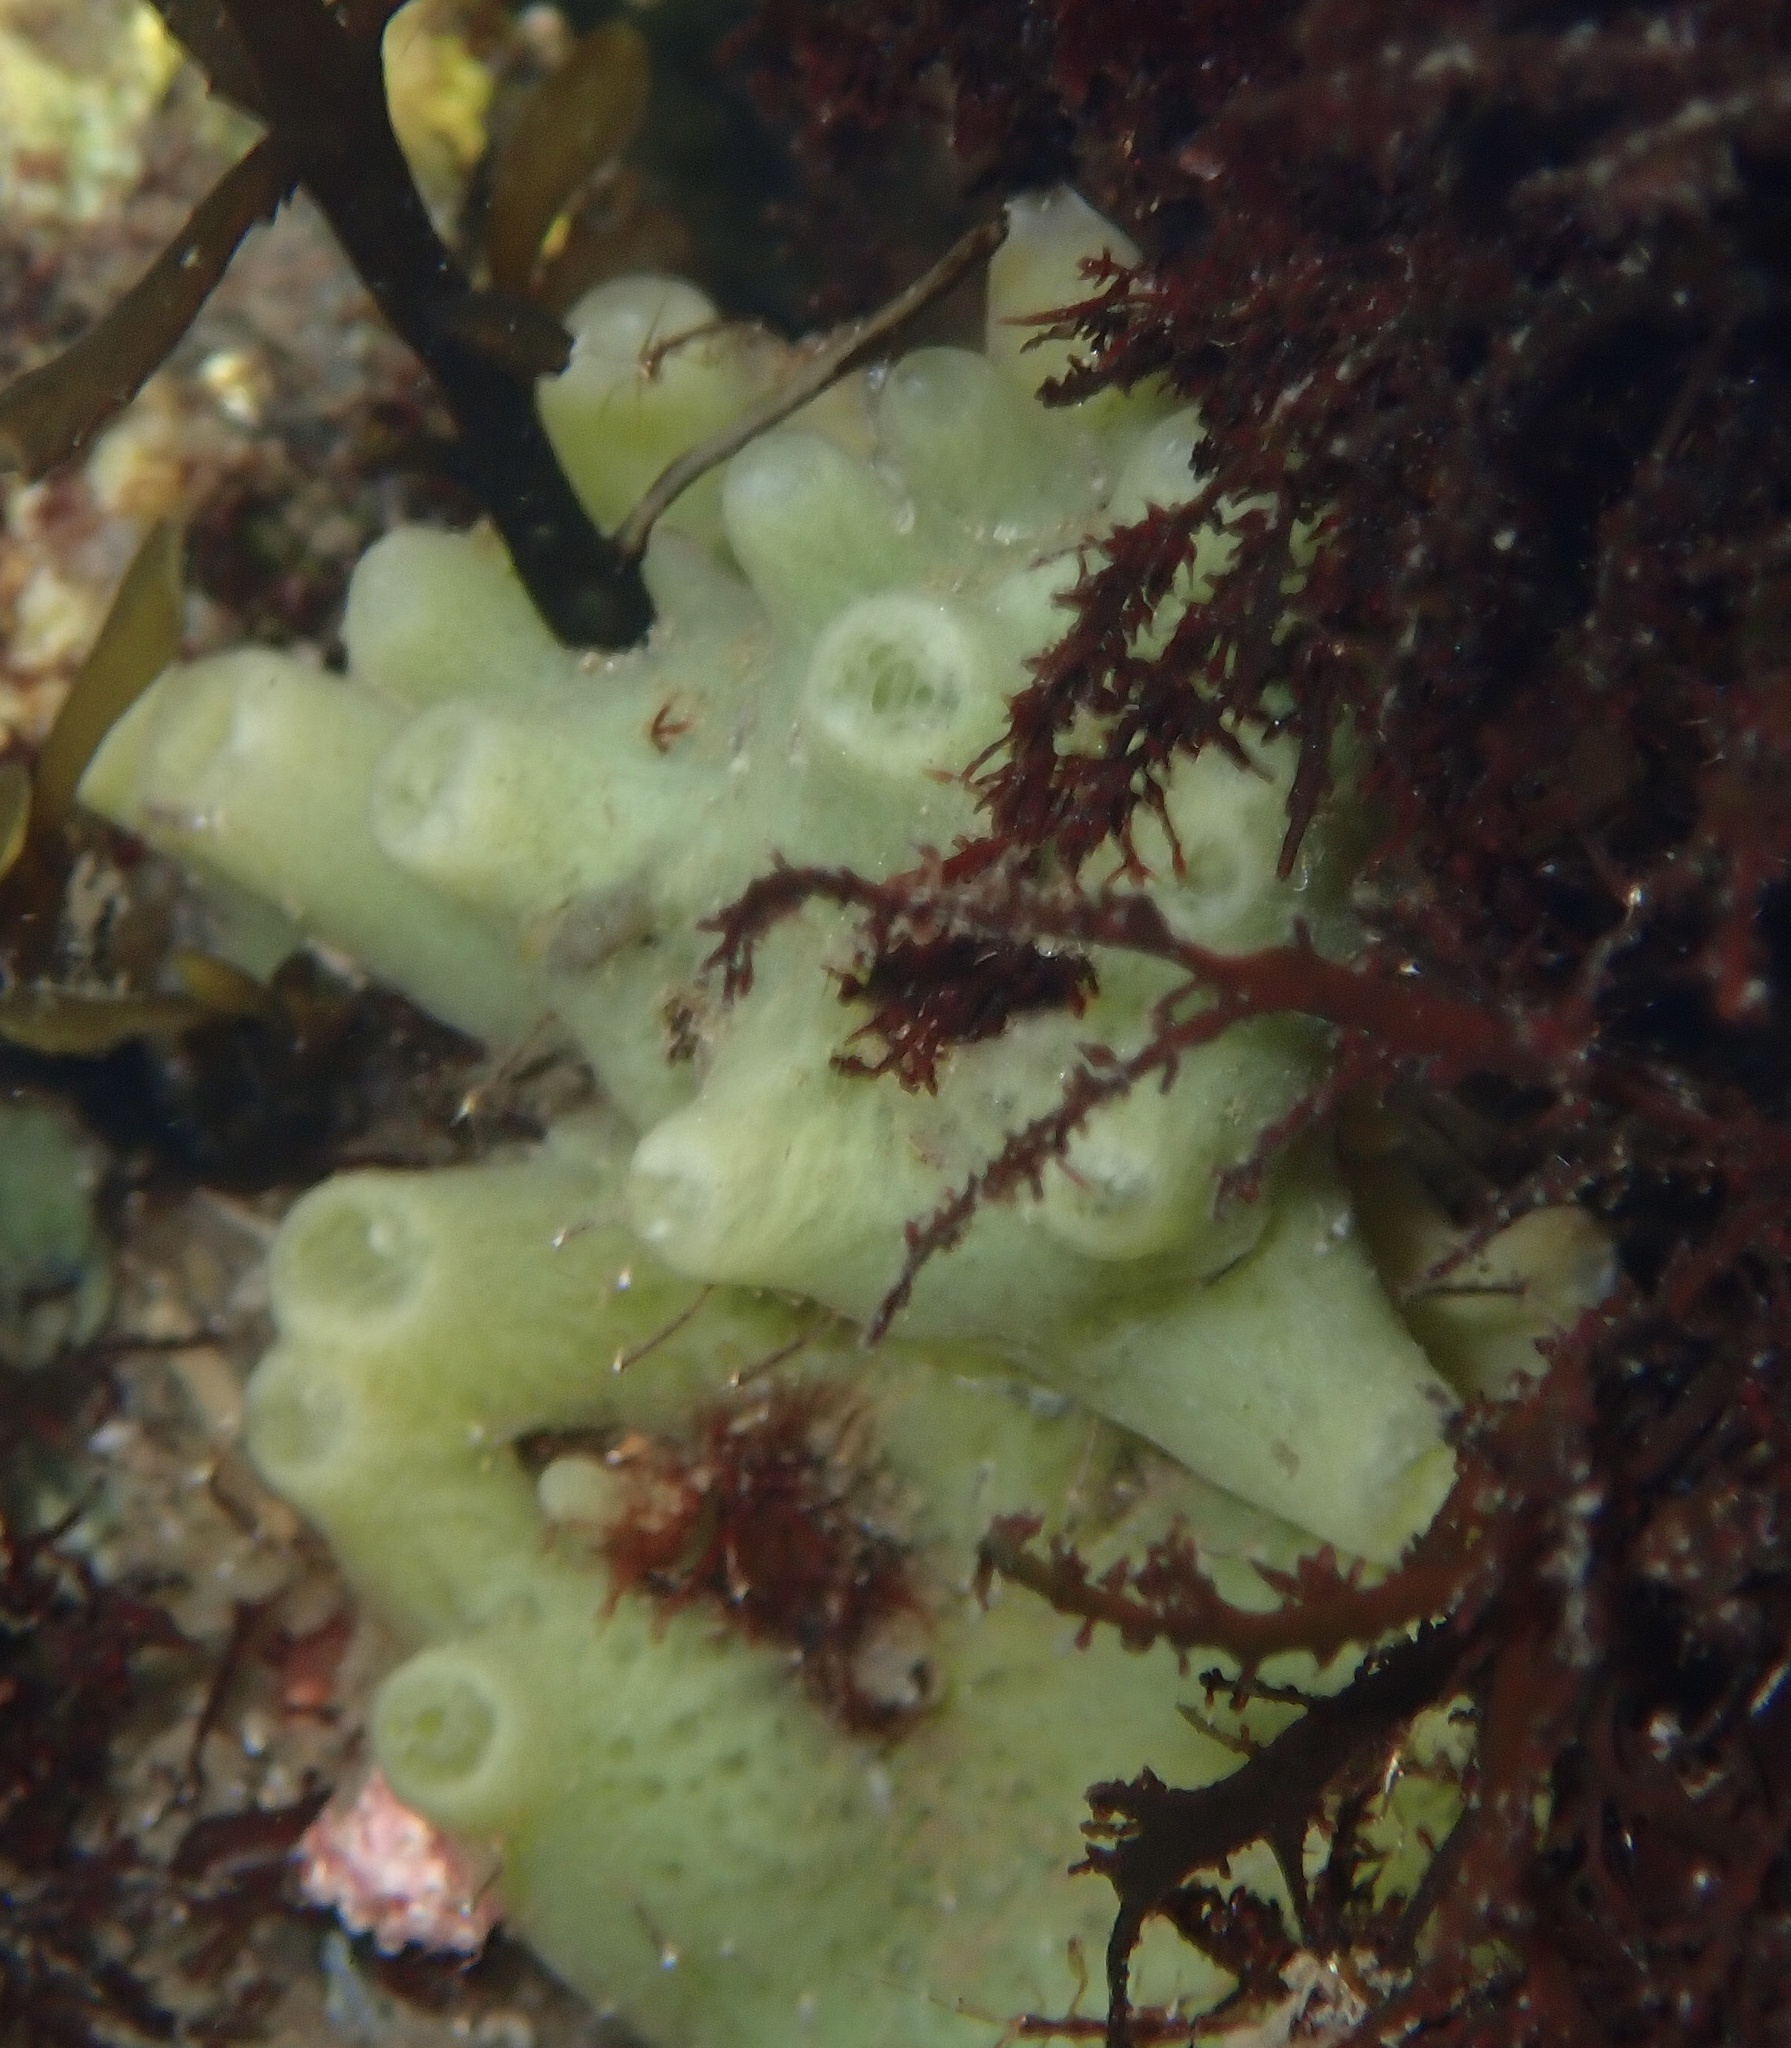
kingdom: Animalia
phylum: Porifera
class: Demospongiae
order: Suberitida
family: Halichondriidae
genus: Halichondria
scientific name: Halichondria panicea
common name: Breadcrumb sponge
